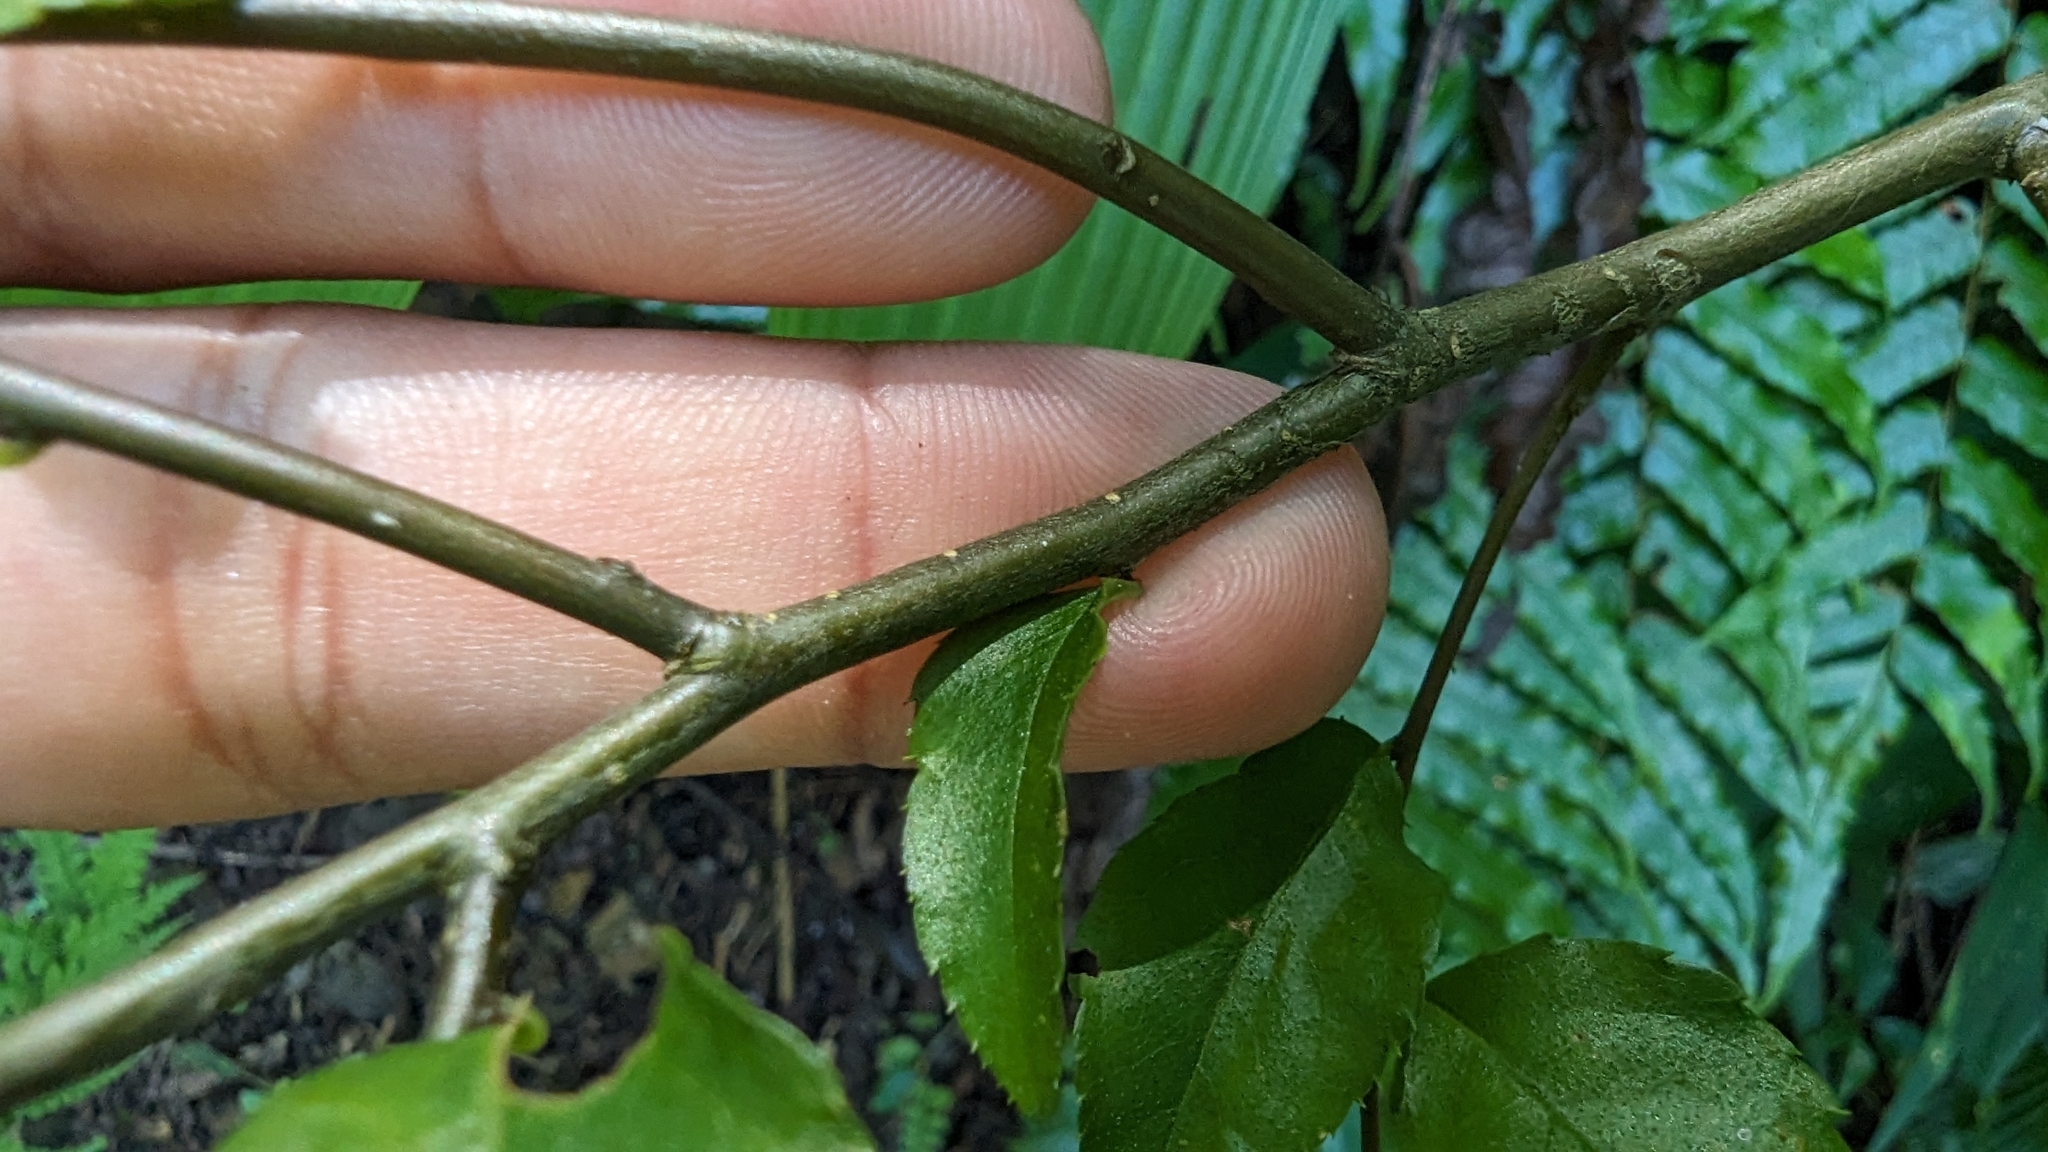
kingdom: Plantae
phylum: Tracheophyta
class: Magnoliopsida
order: Aquifoliales
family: Aquifoliaceae
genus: Ilex
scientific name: Ilex asprella
